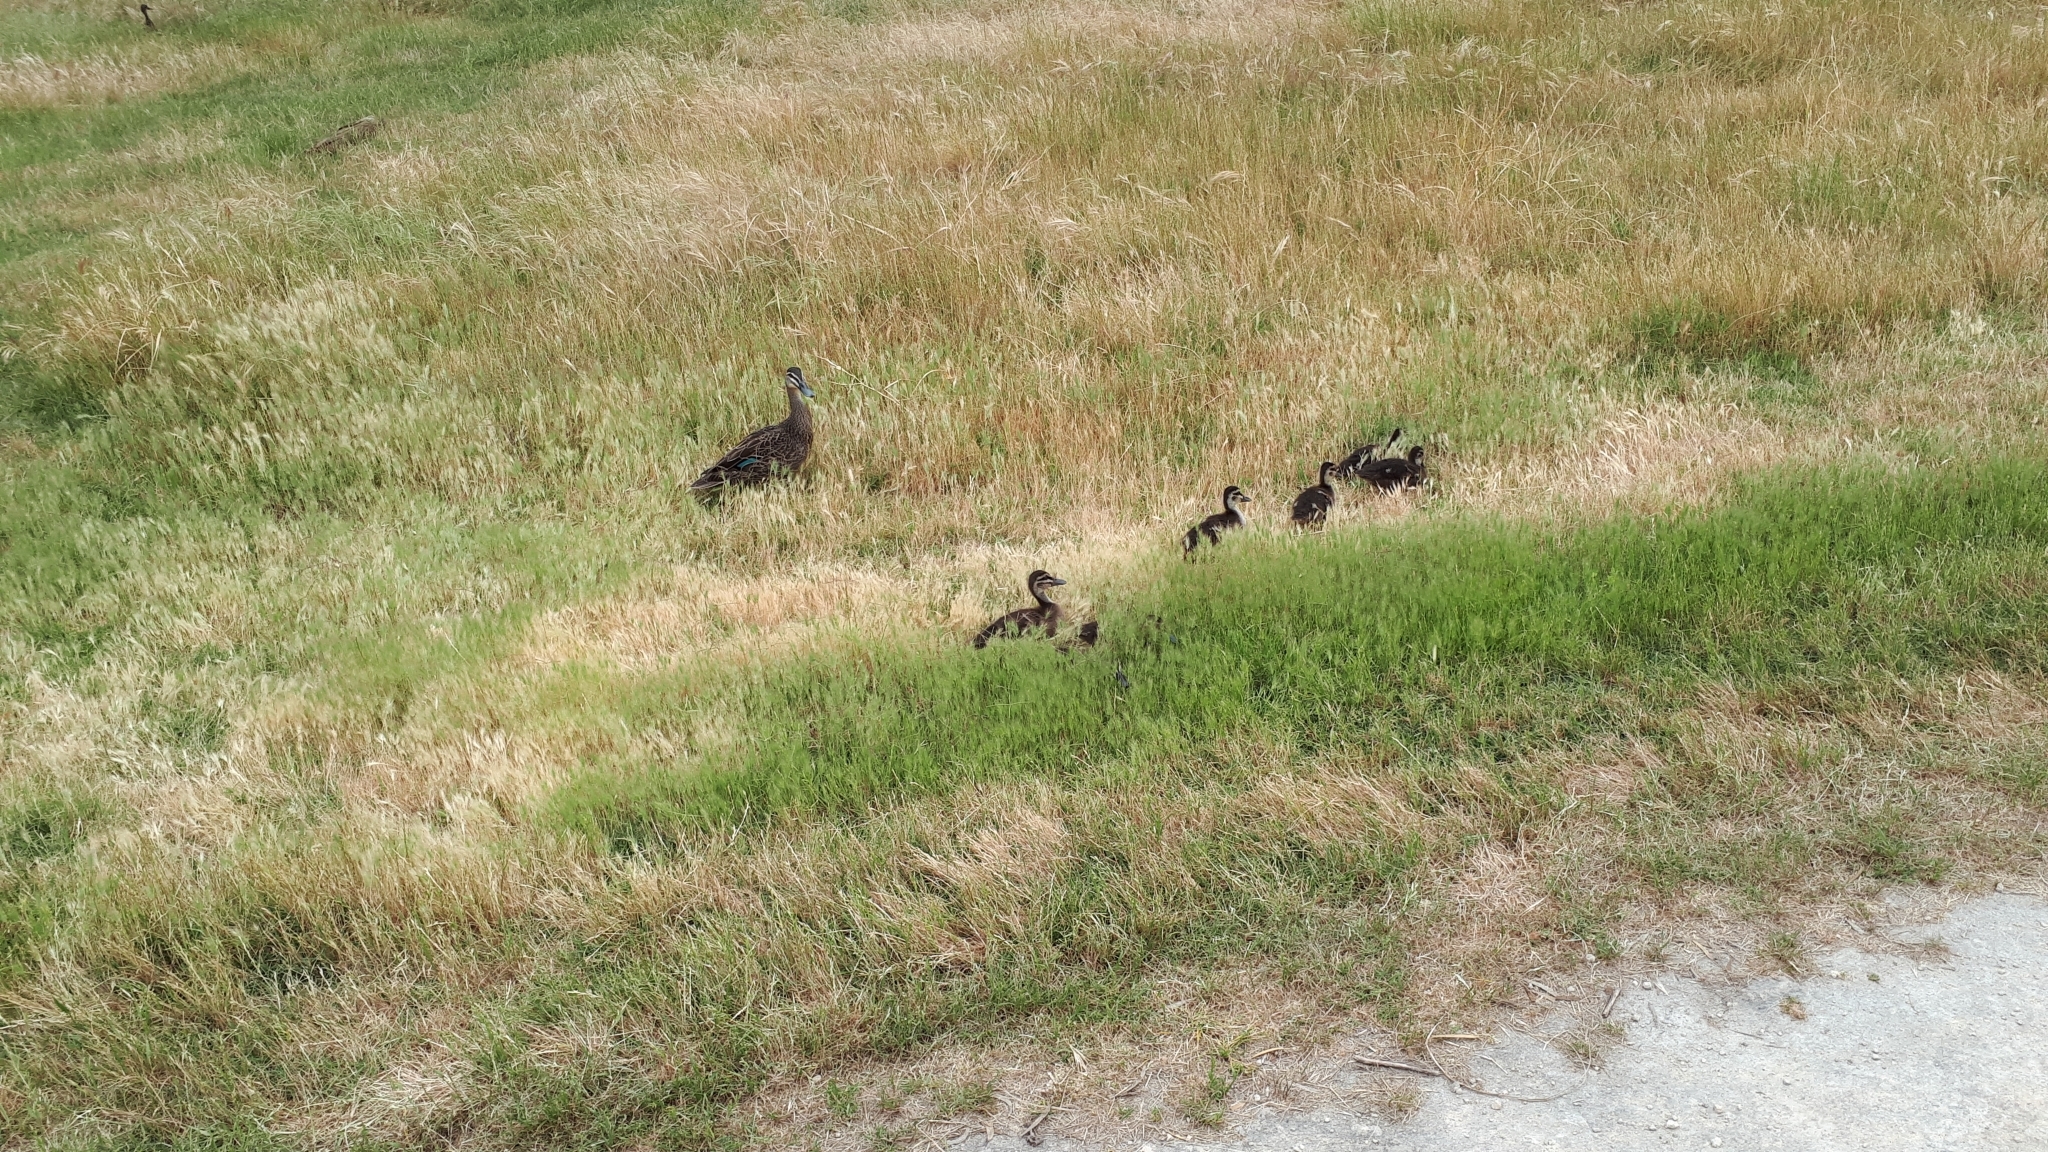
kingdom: Animalia
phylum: Chordata
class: Aves
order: Anseriformes
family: Anatidae
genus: Anas
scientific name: Anas superciliosa
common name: Pacific black duck
